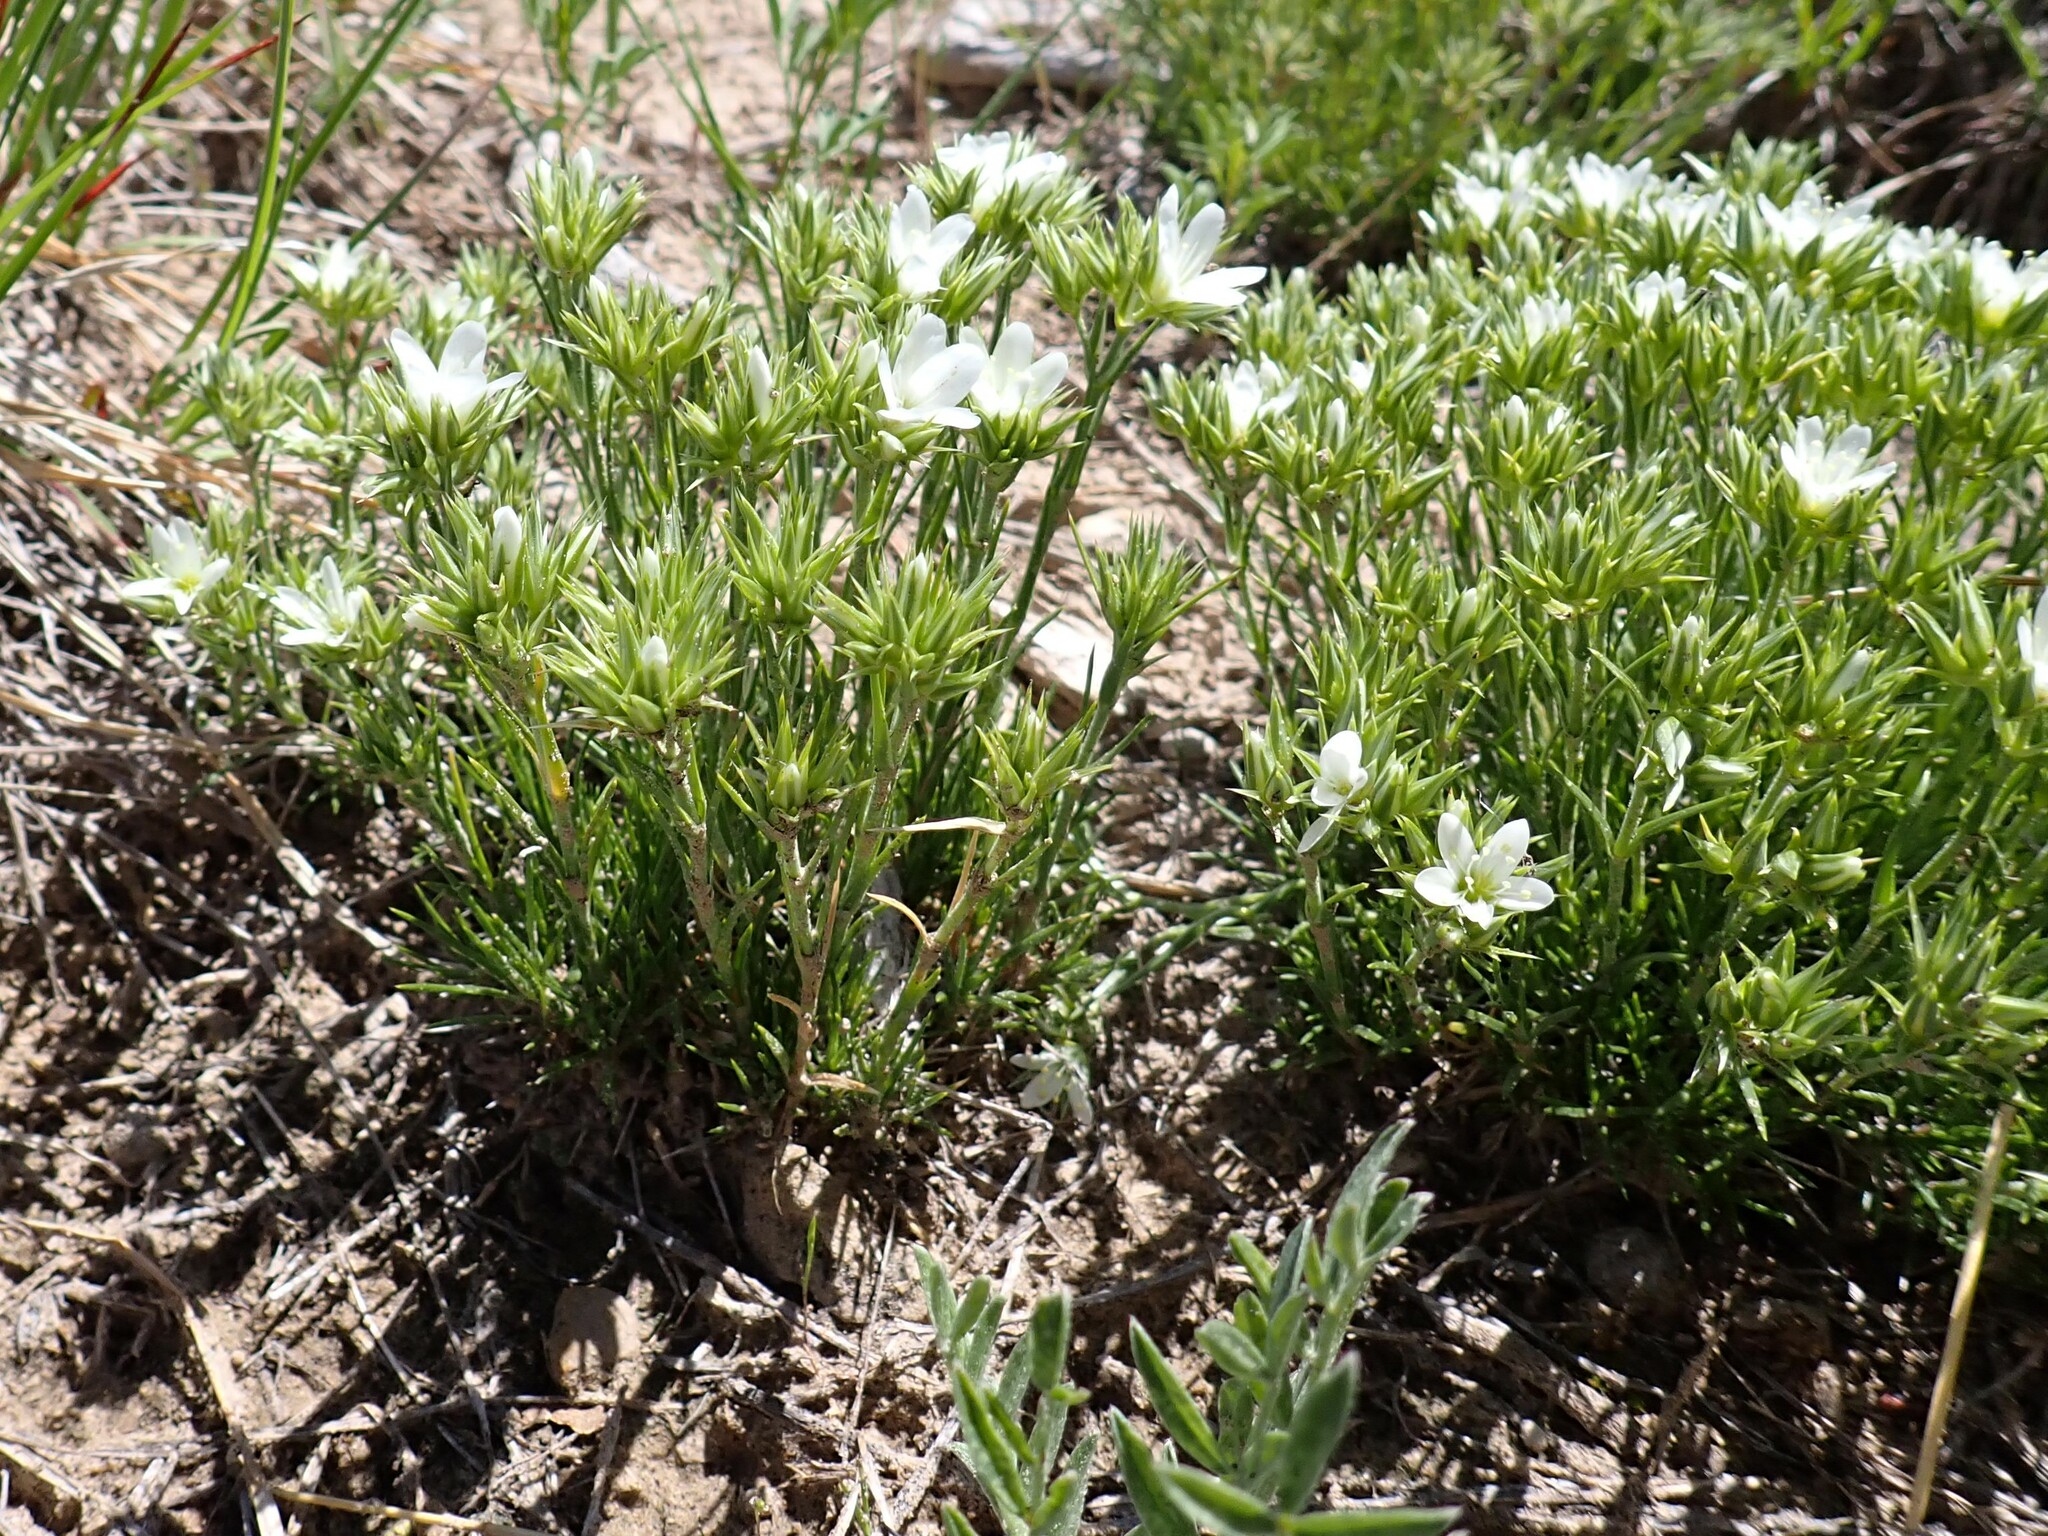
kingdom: Plantae
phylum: Tracheophyta
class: Magnoliopsida
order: Caryophyllales
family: Caryophyllaceae
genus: Eremogone
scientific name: Eremogone hookeri
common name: Hooker's sandwort
